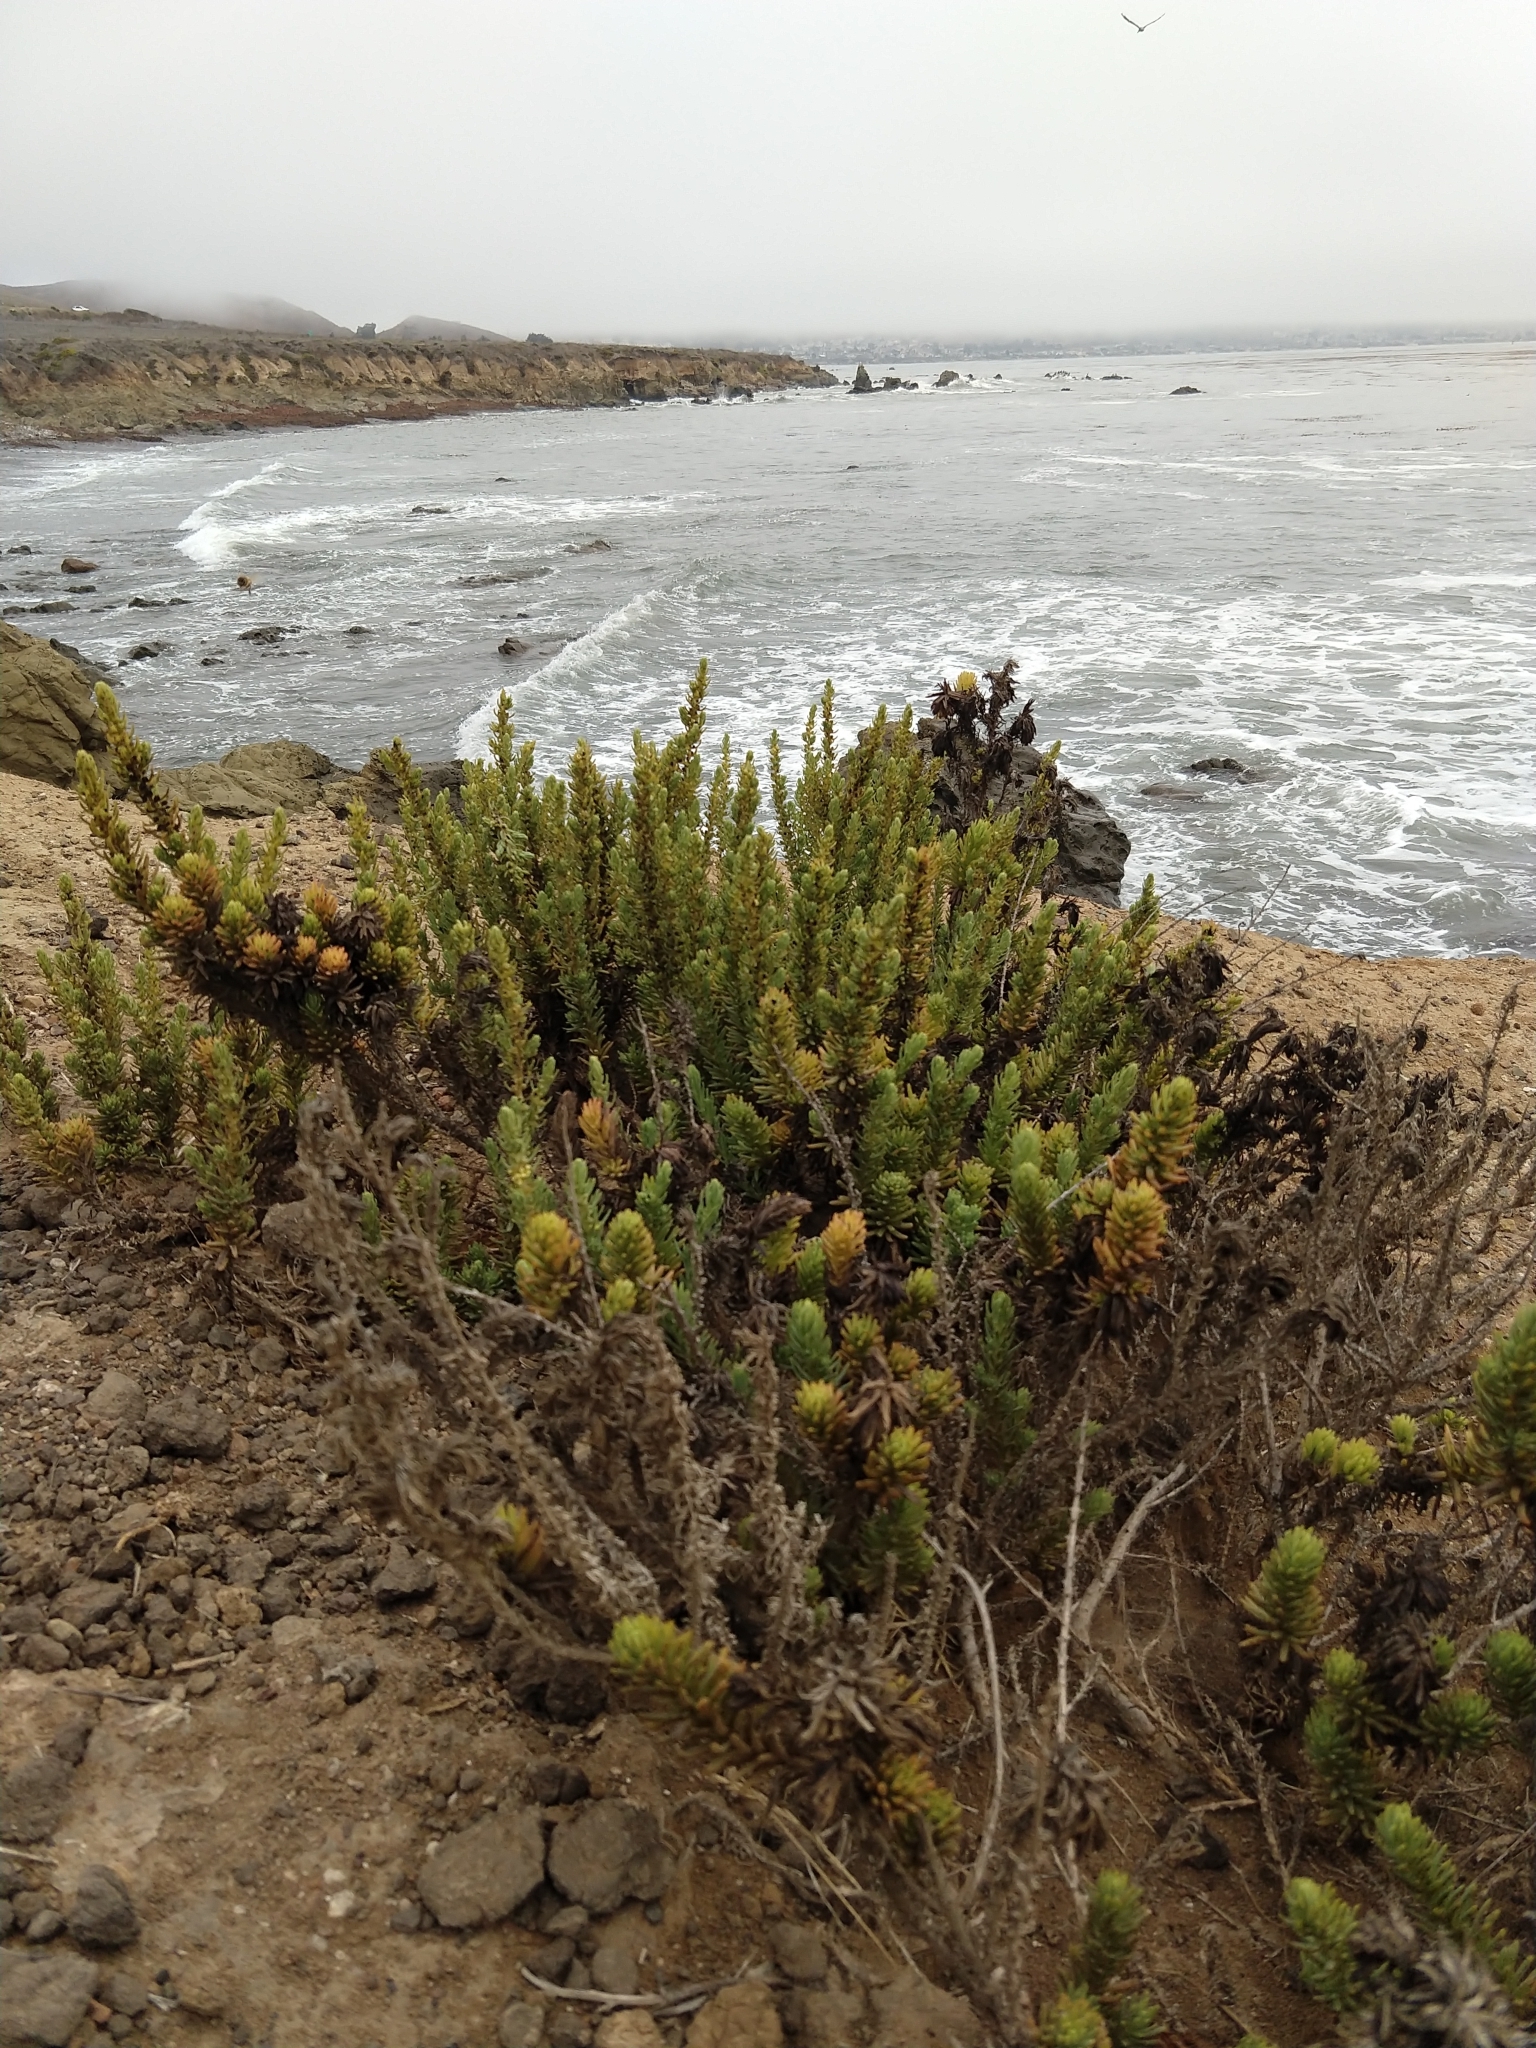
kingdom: Plantae
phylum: Tracheophyta
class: Magnoliopsida
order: Caryophyllales
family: Amaranthaceae
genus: Suaeda
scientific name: Suaeda californica
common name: California sea-blite
